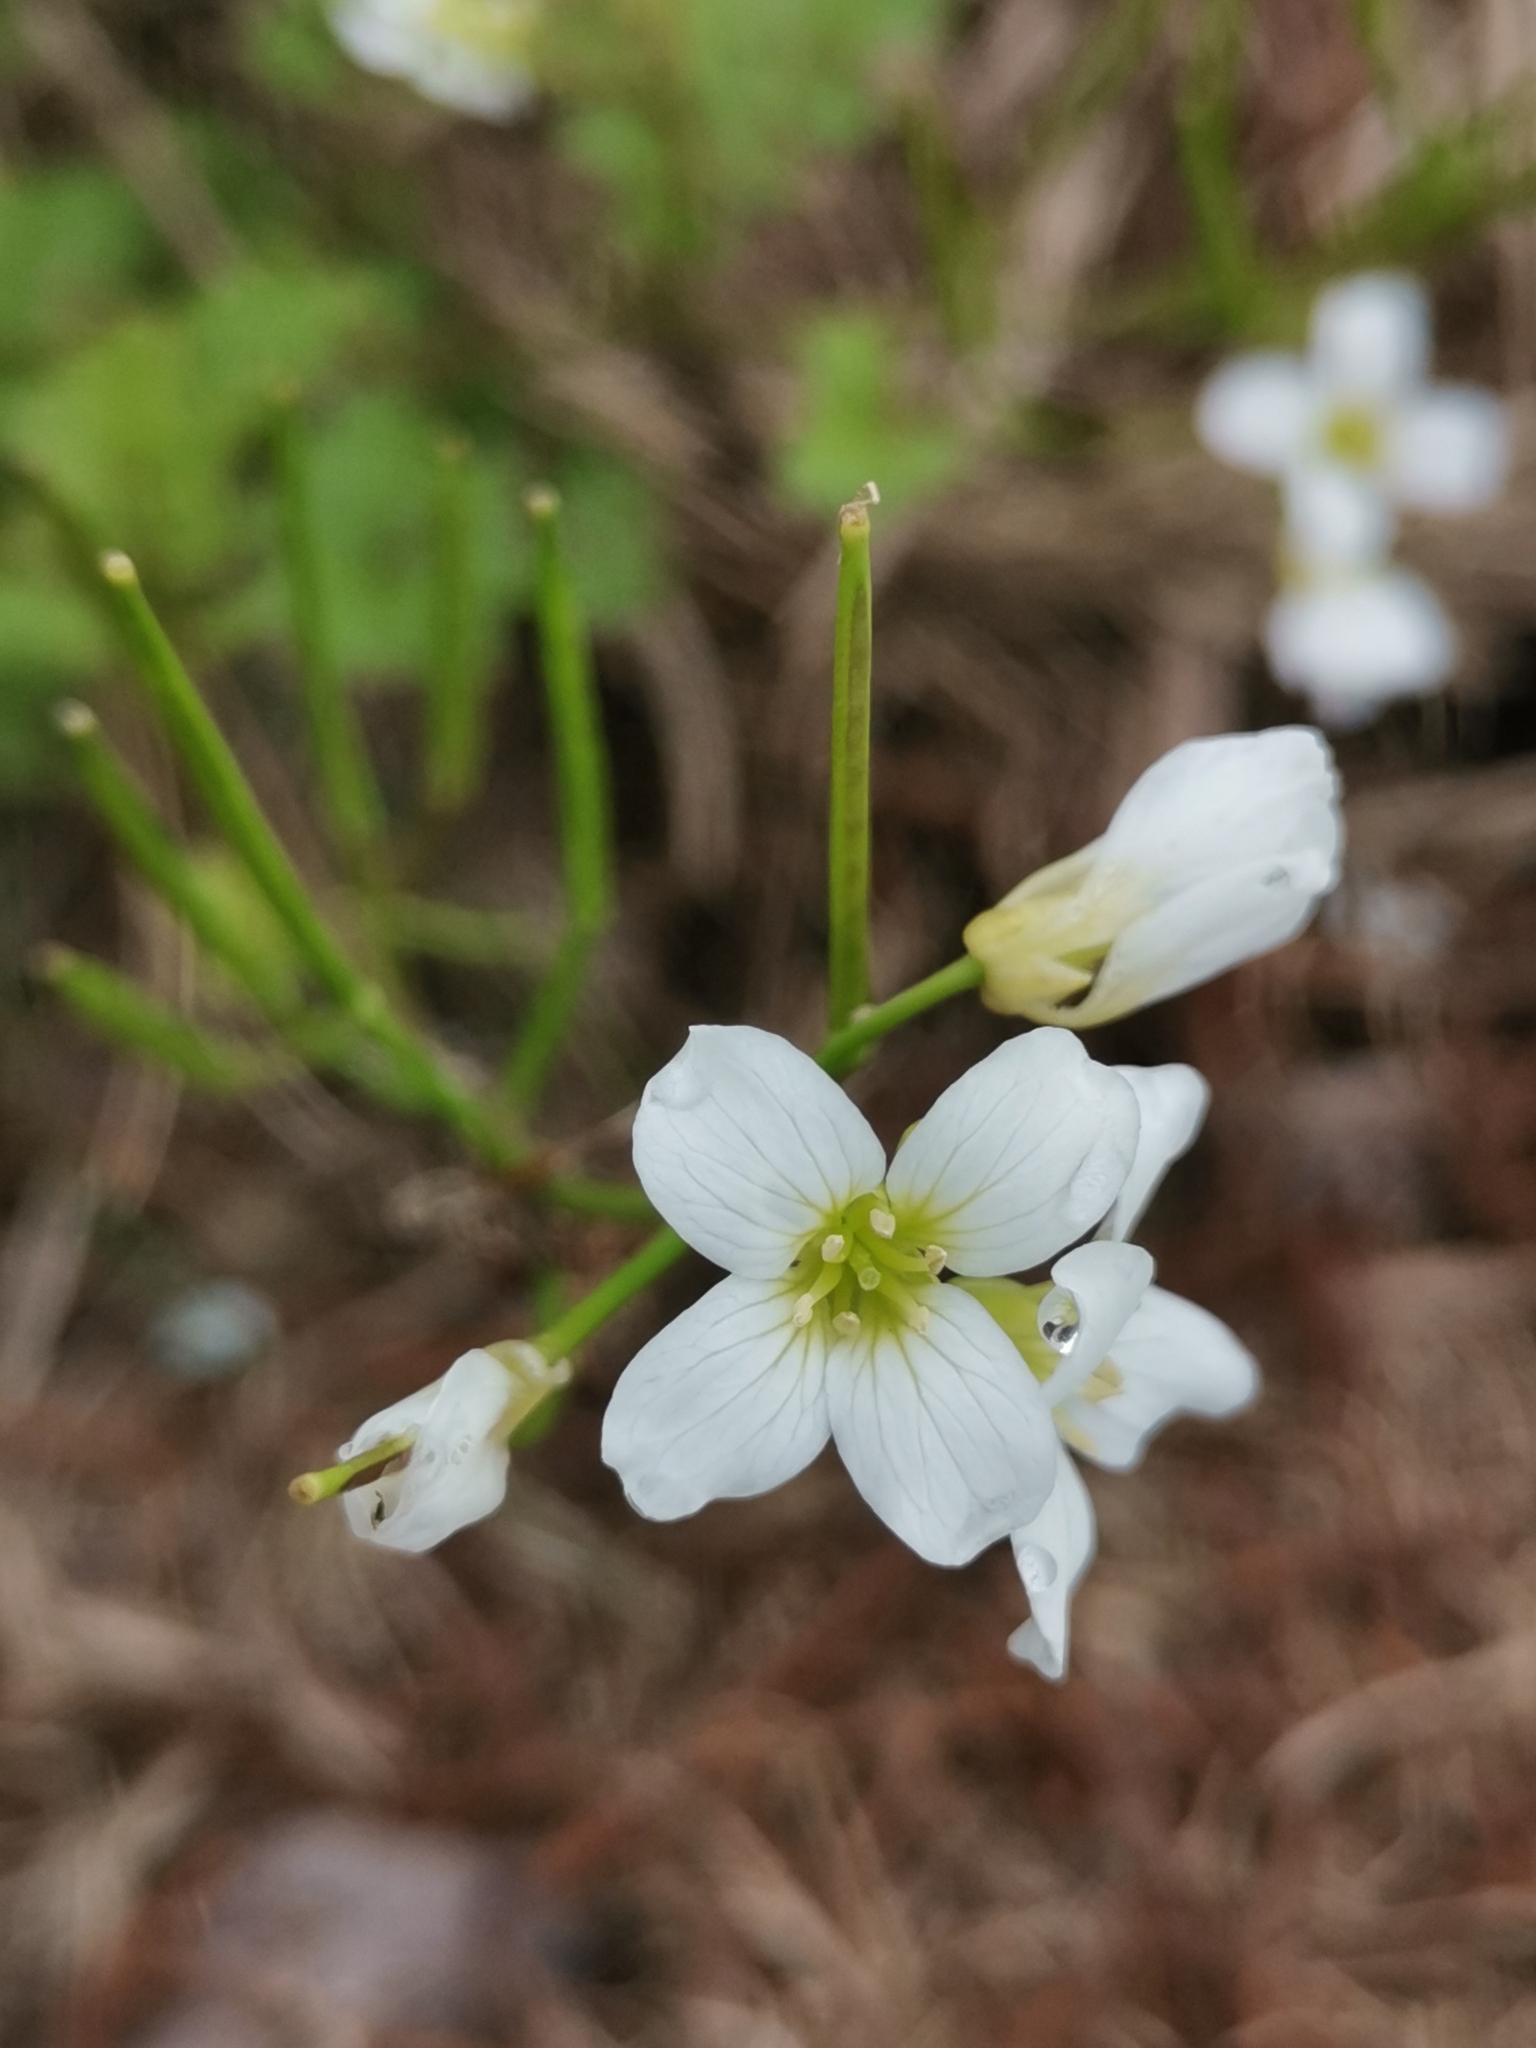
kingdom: Plantae
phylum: Tracheophyta
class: Magnoliopsida
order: Brassicales
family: Brassicaceae
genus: Cardamine
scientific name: Cardamine caldeirarum
